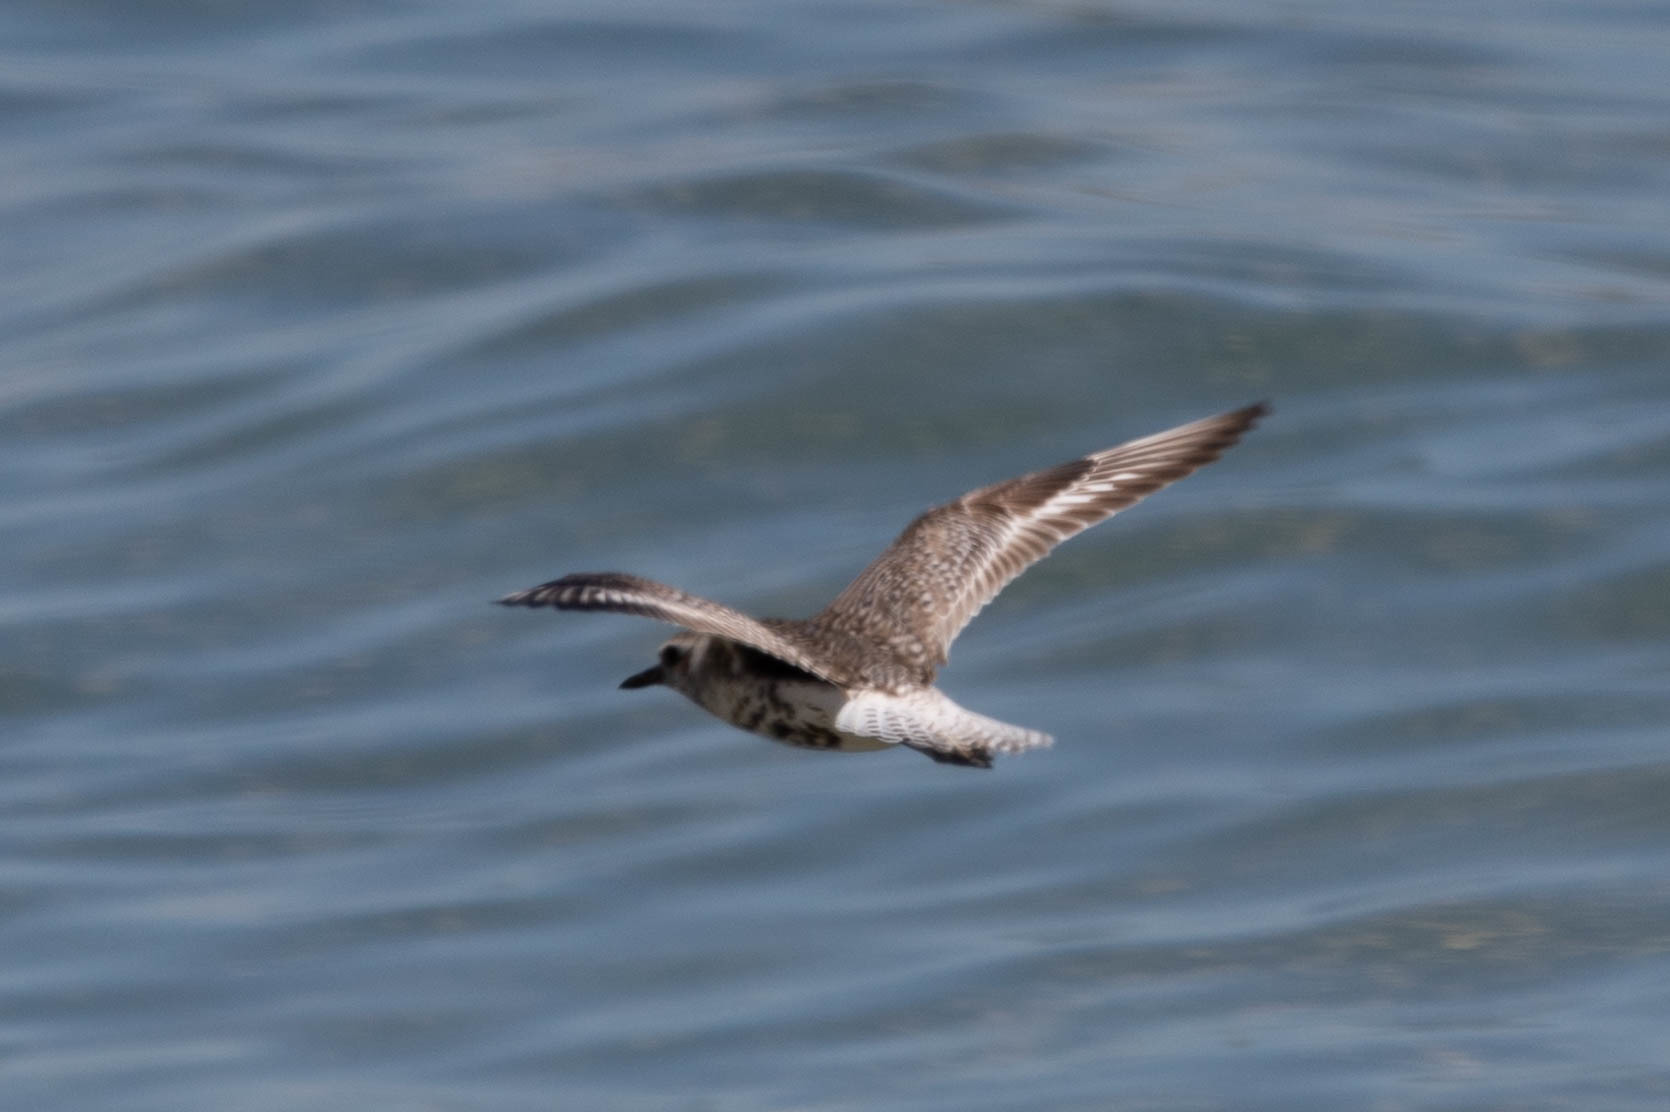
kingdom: Animalia
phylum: Chordata
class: Aves
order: Charadriiformes
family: Charadriidae
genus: Pluvialis
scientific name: Pluvialis squatarola
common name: Grey plover
